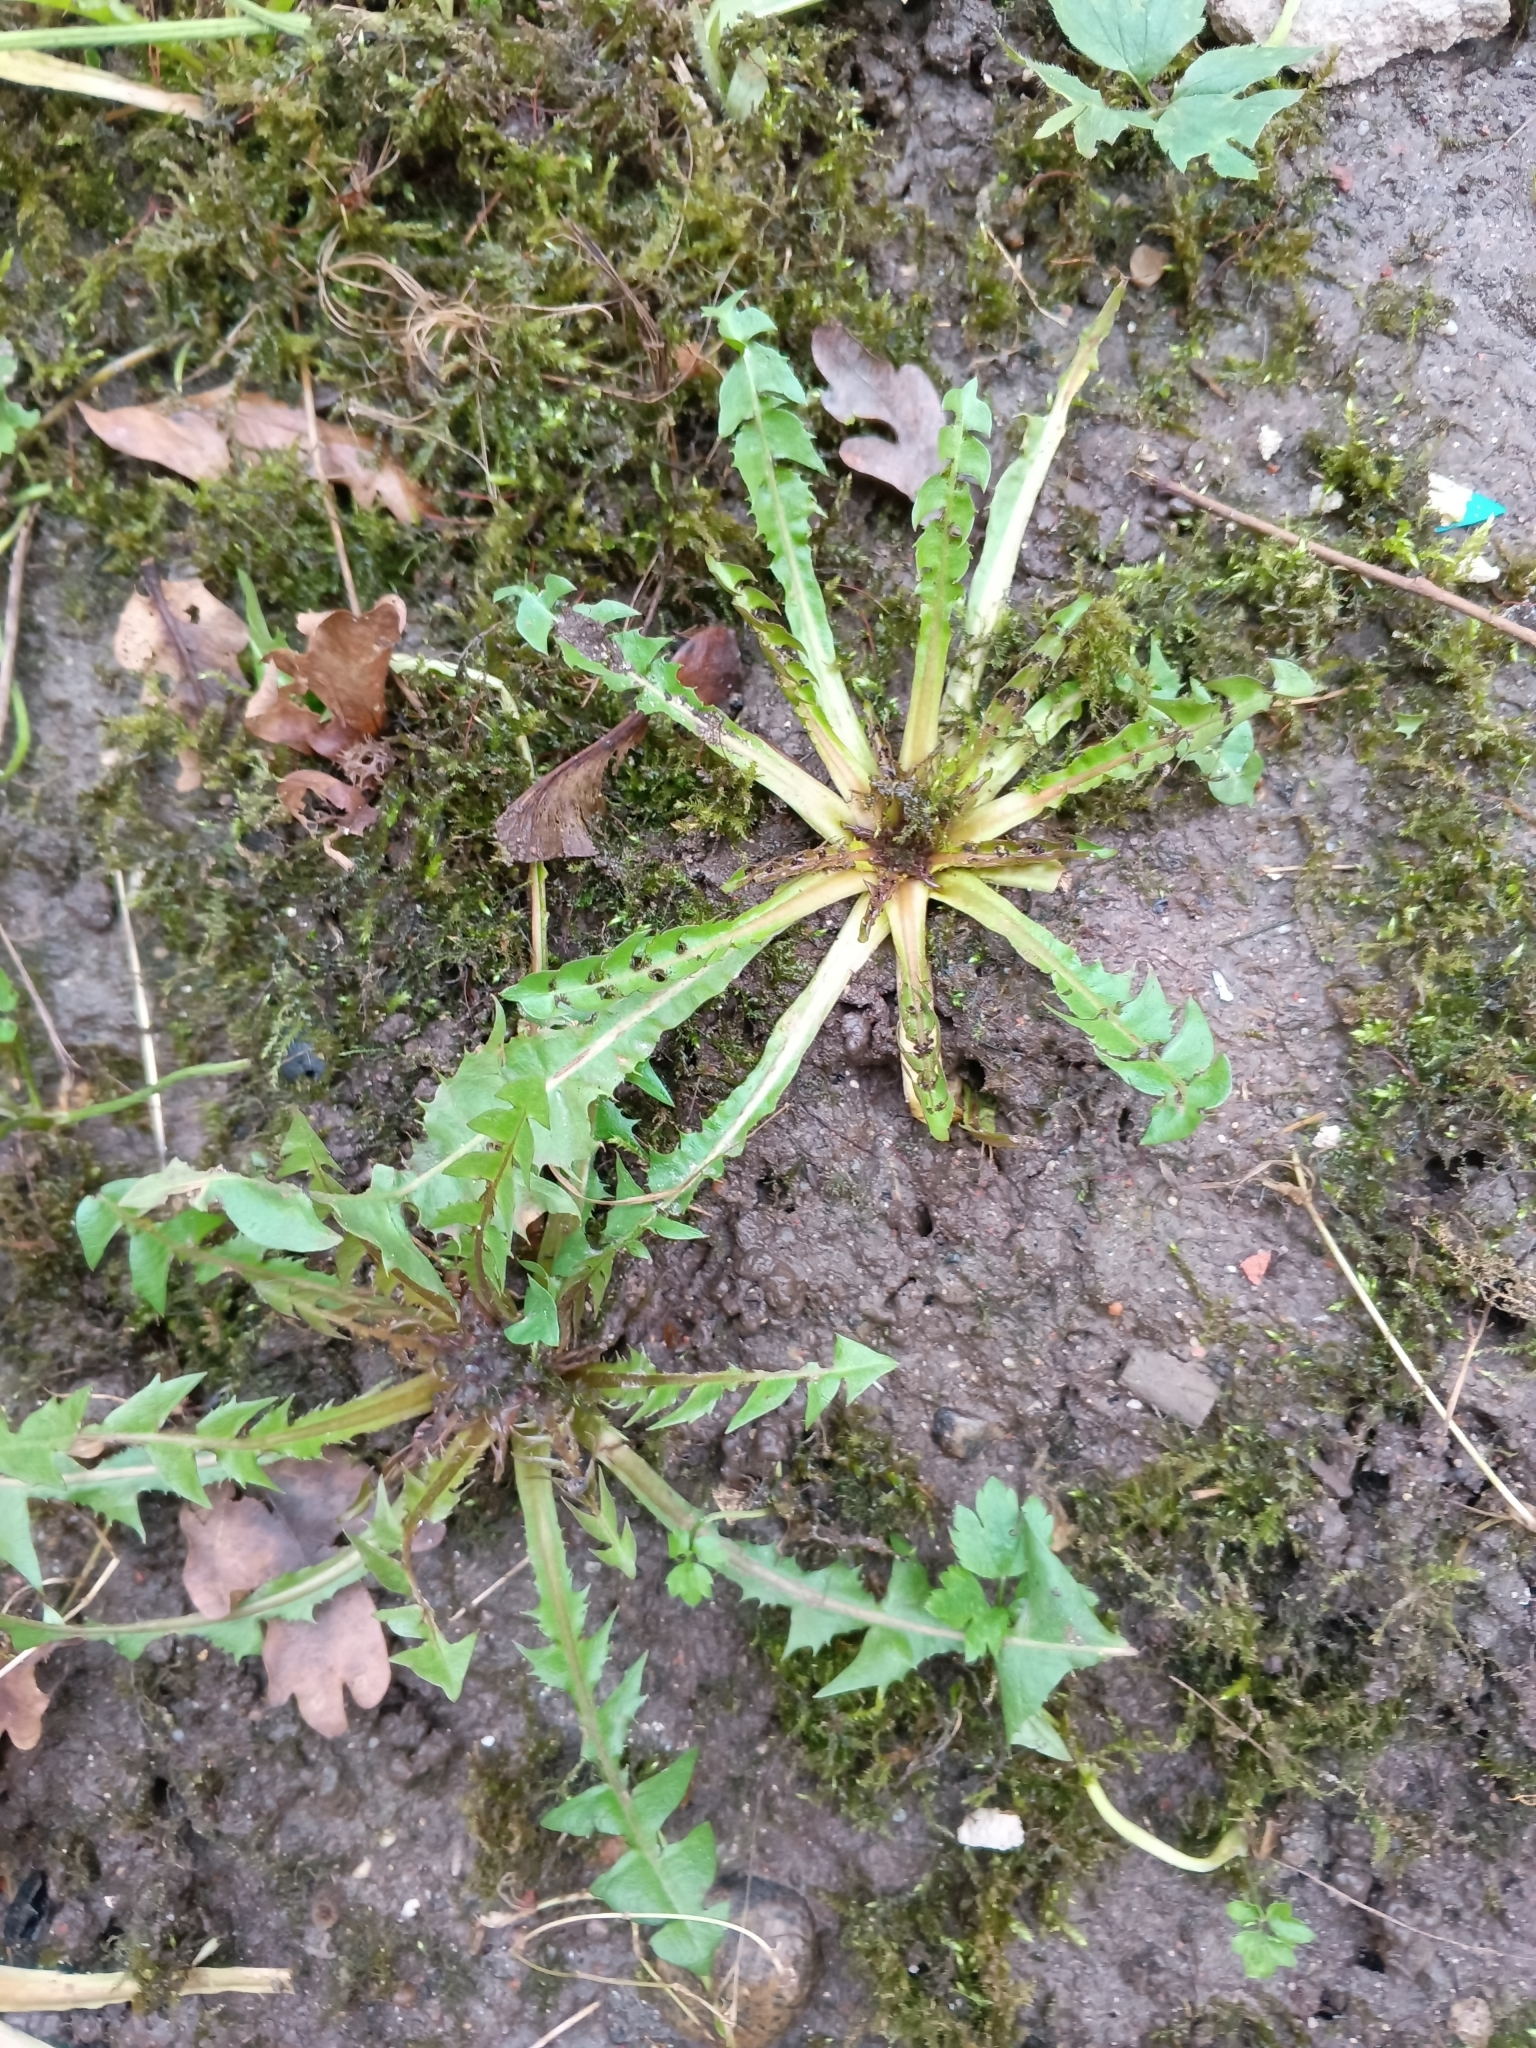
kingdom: Plantae
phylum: Tracheophyta
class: Magnoliopsida
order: Asterales
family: Asteraceae
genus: Taraxacum
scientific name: Taraxacum officinale
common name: Common dandelion
